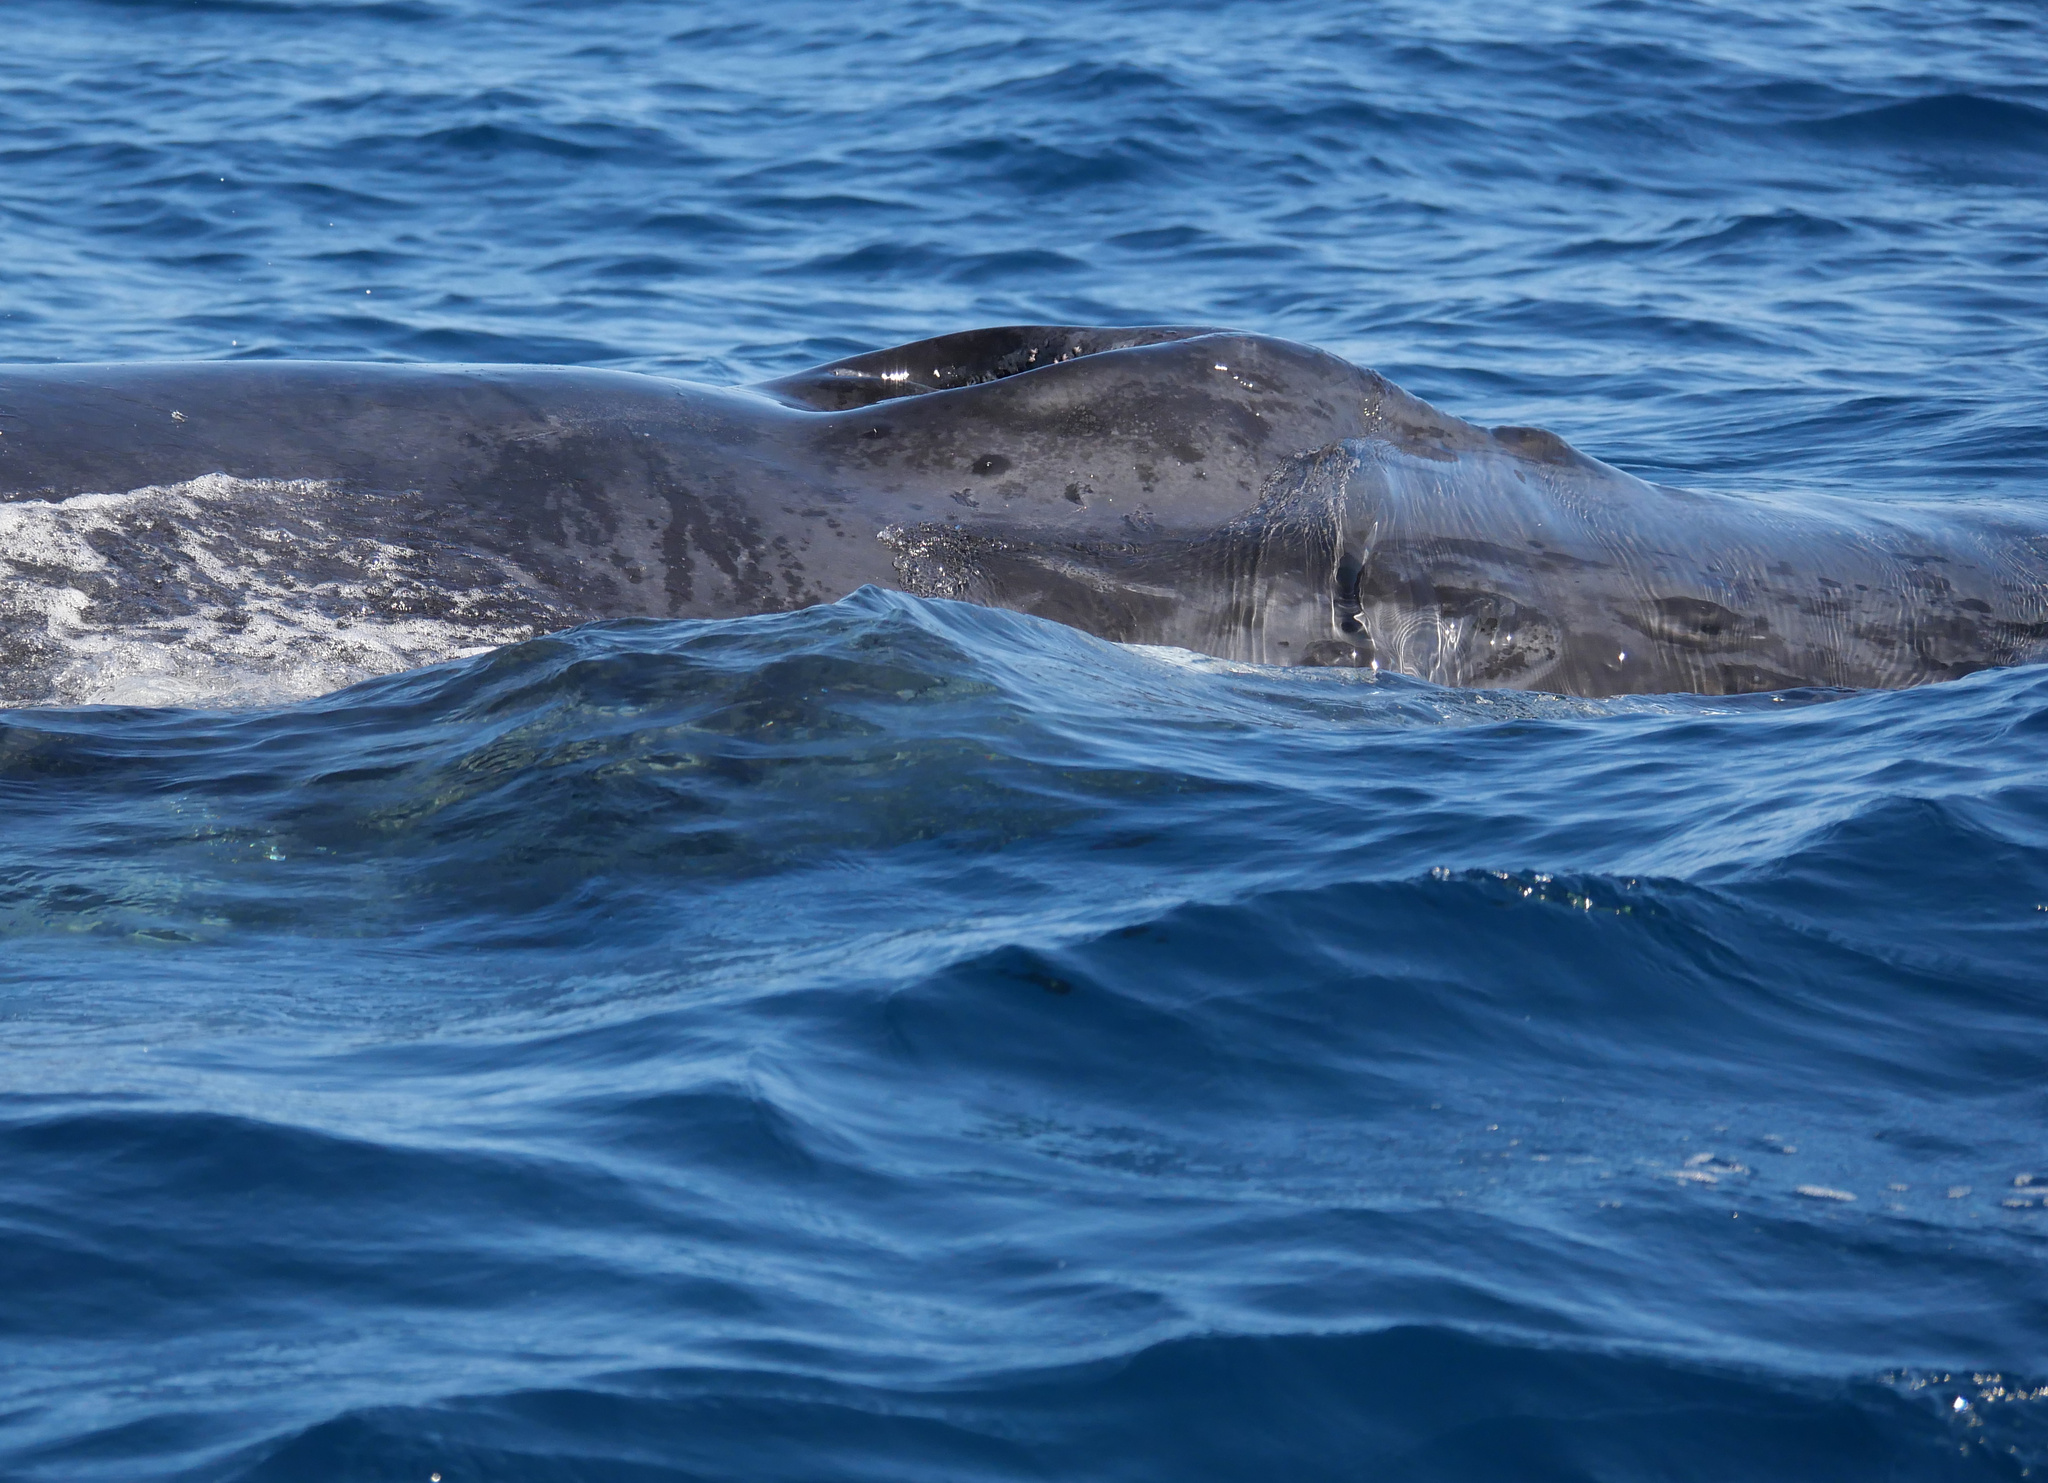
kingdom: Animalia
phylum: Chordata
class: Mammalia
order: Cetacea
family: Balaenopteridae
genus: Megaptera
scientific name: Megaptera novaeangliae
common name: Humpback whale
